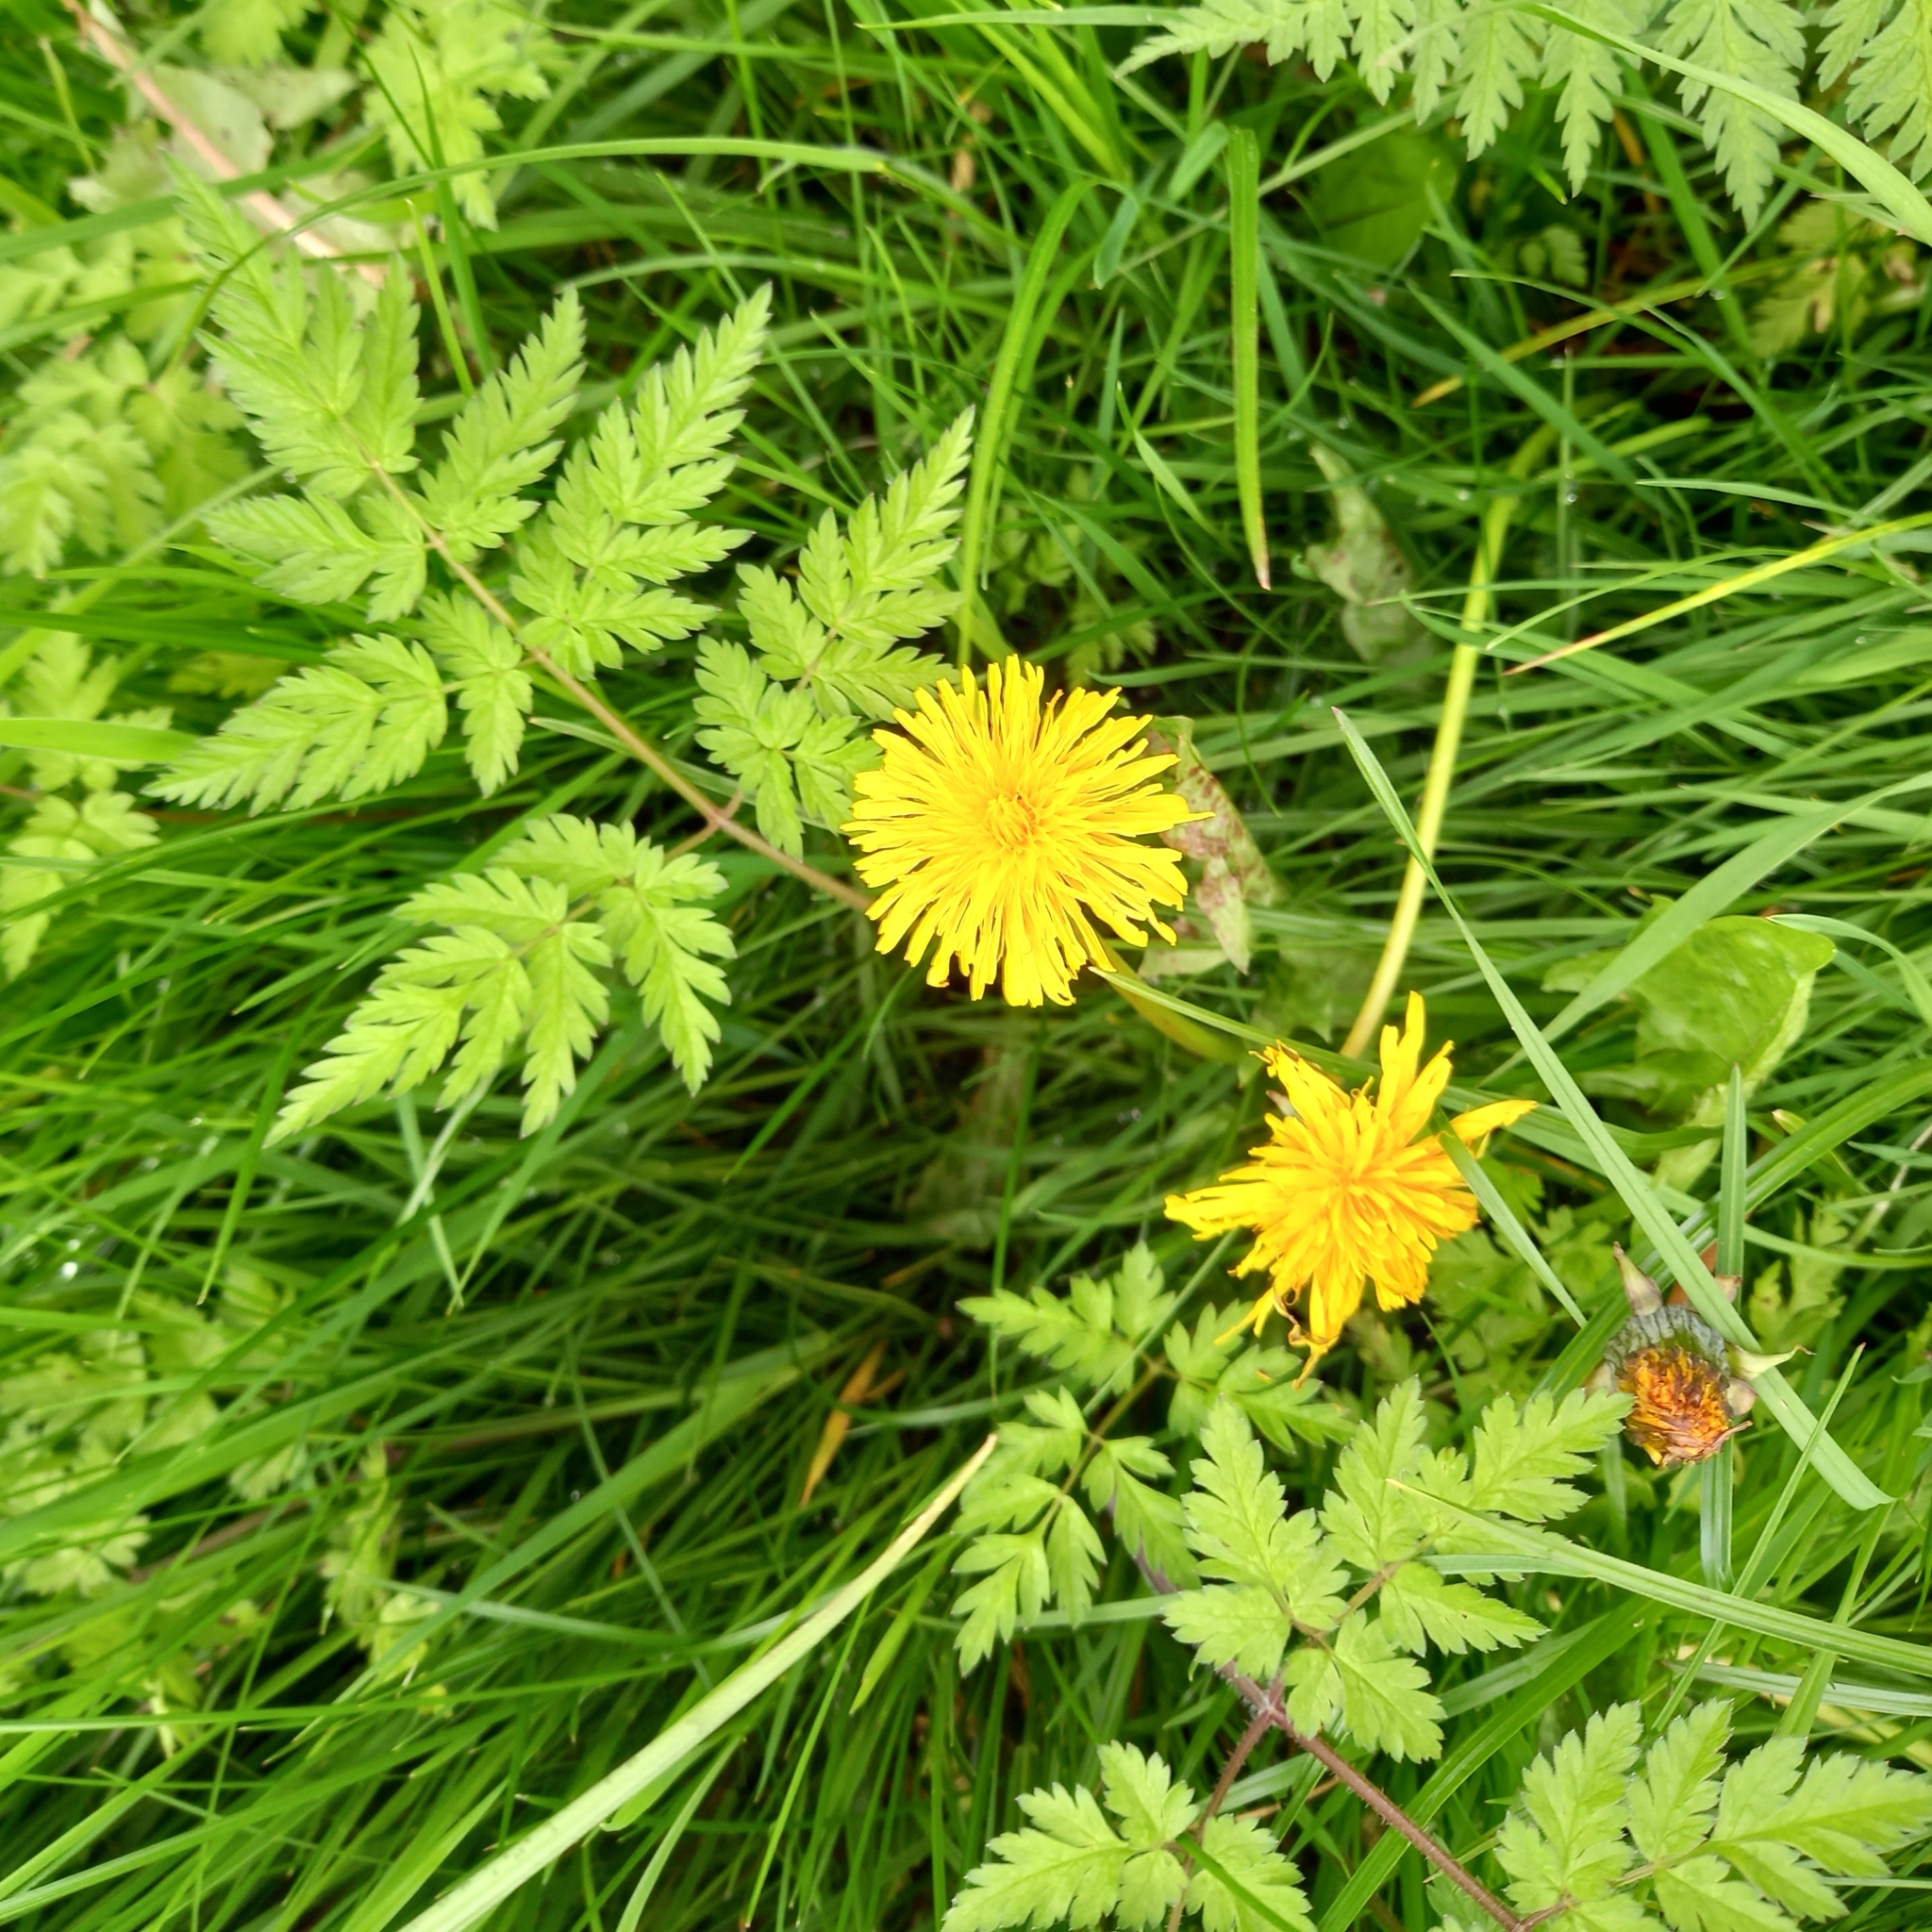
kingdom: Plantae
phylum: Tracheophyta
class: Magnoliopsida
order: Asterales
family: Asteraceae
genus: Taraxacum
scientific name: Taraxacum officinale
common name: Common dandelion
